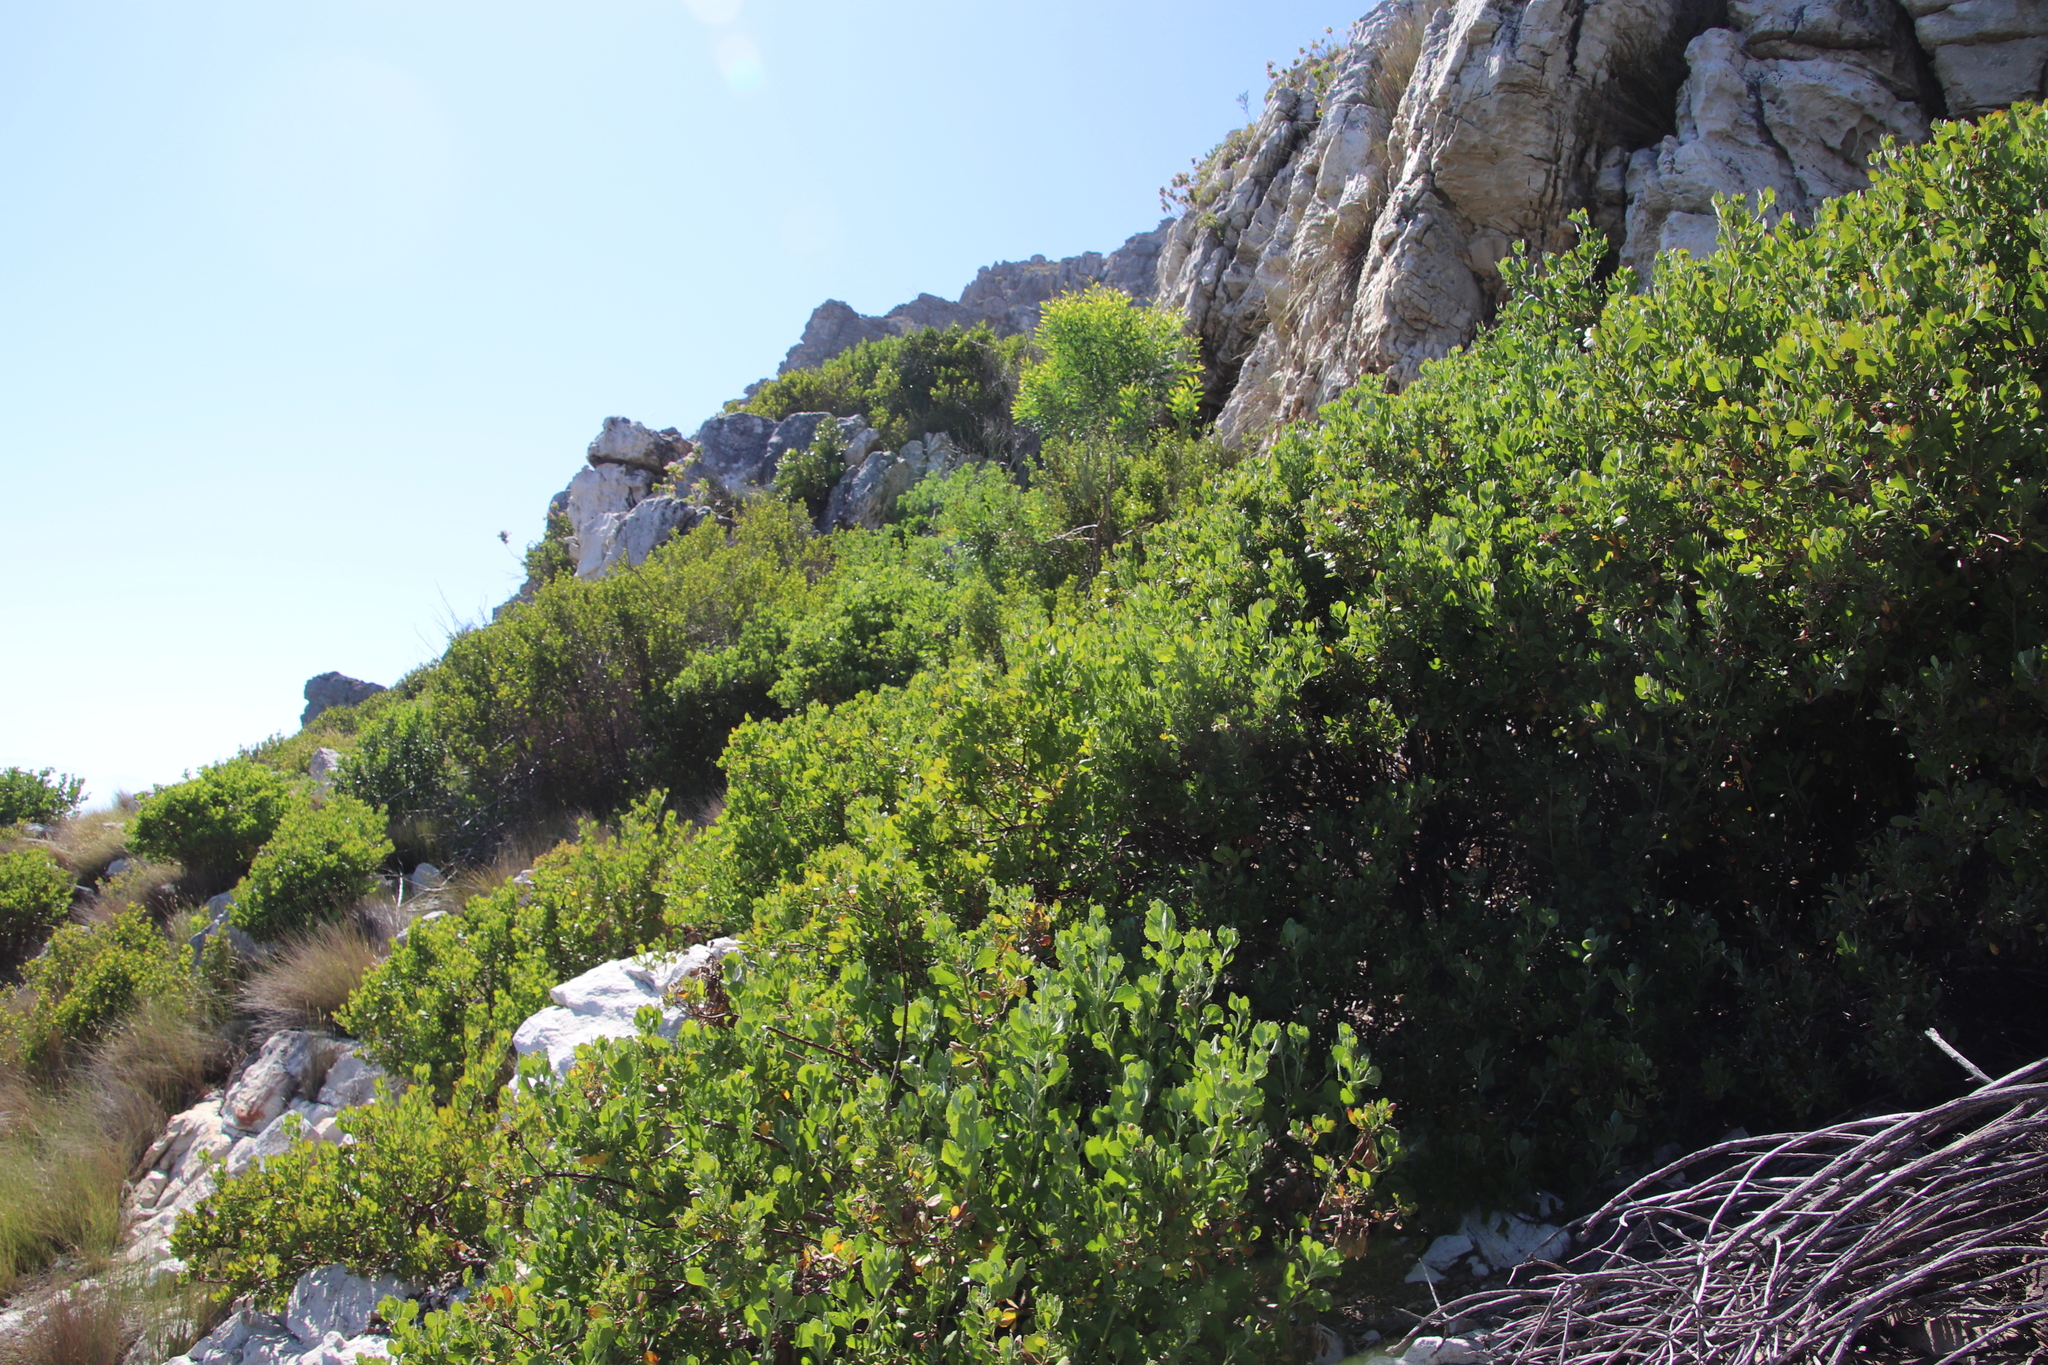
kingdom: Plantae
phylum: Tracheophyta
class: Magnoliopsida
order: Asterales
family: Asteraceae
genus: Osteospermum
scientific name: Osteospermum moniliferum
